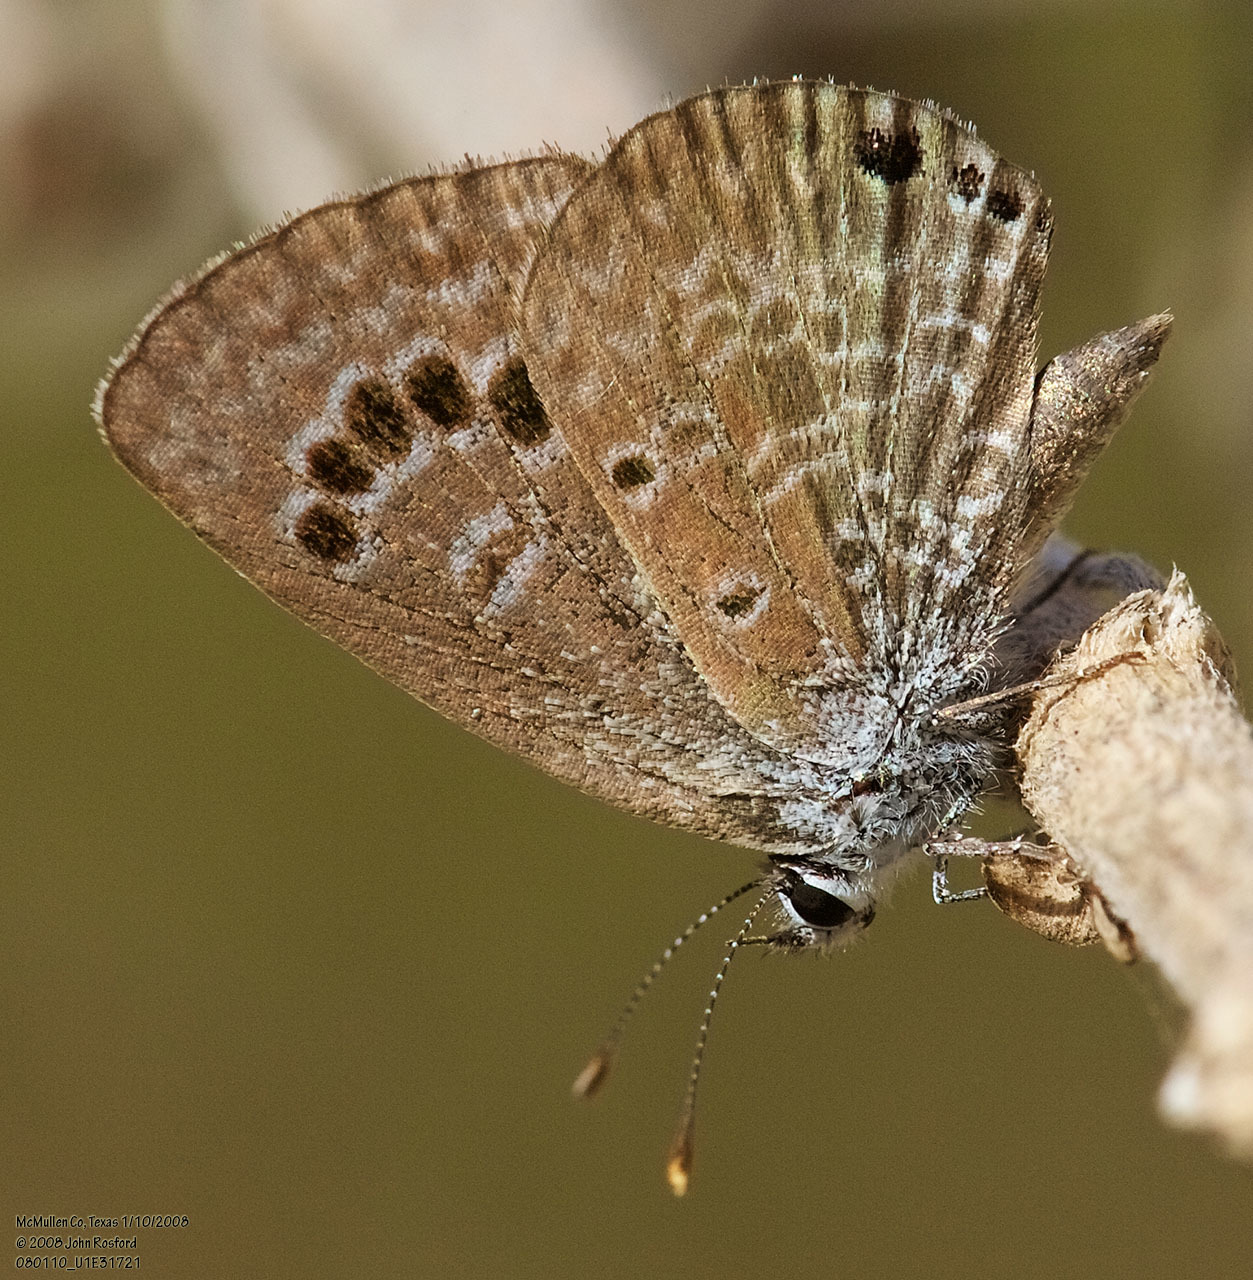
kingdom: Animalia
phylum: Arthropoda
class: Insecta
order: Lepidoptera
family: Lycaenidae
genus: Echinargus
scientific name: Echinargus isola
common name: Reakirt's blue
